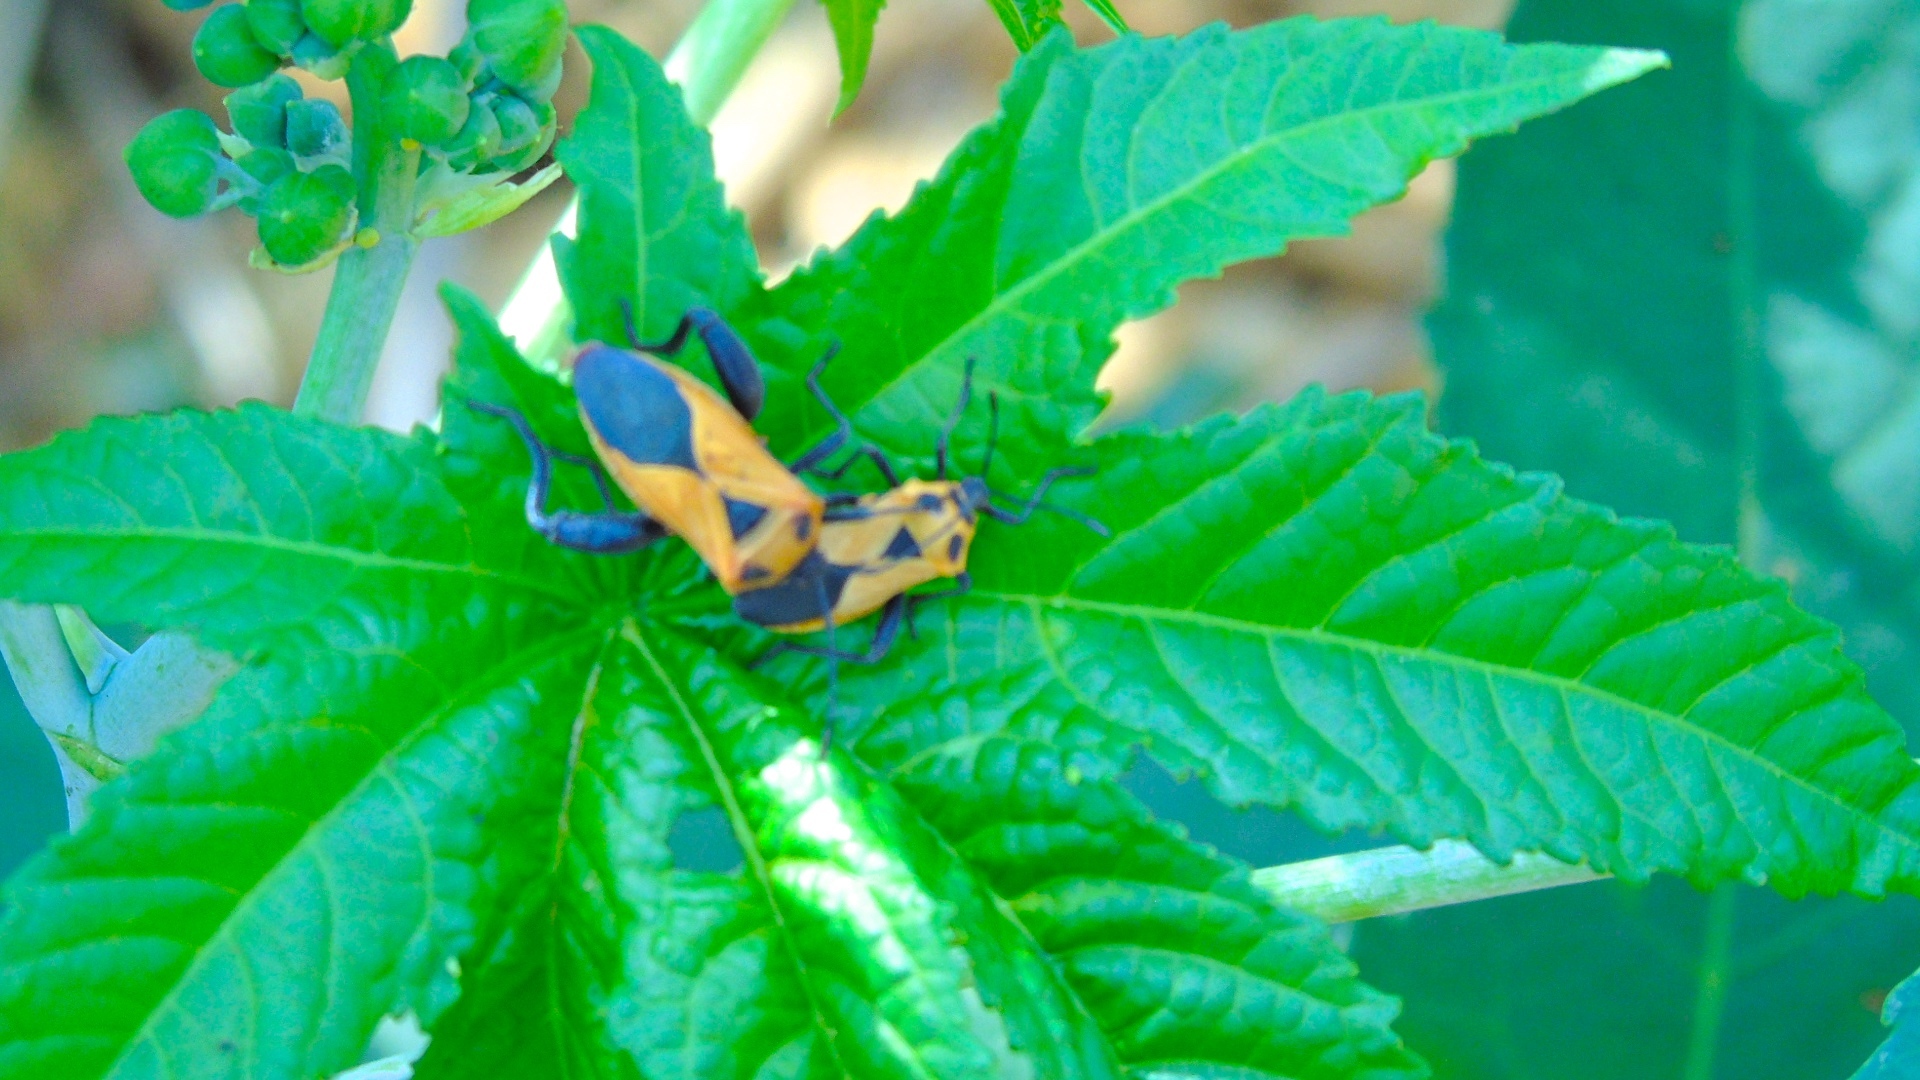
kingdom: Animalia
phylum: Arthropoda
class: Insecta
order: Hemiptera
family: Coreidae
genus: Sagotylus
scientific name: Sagotylus confluens
